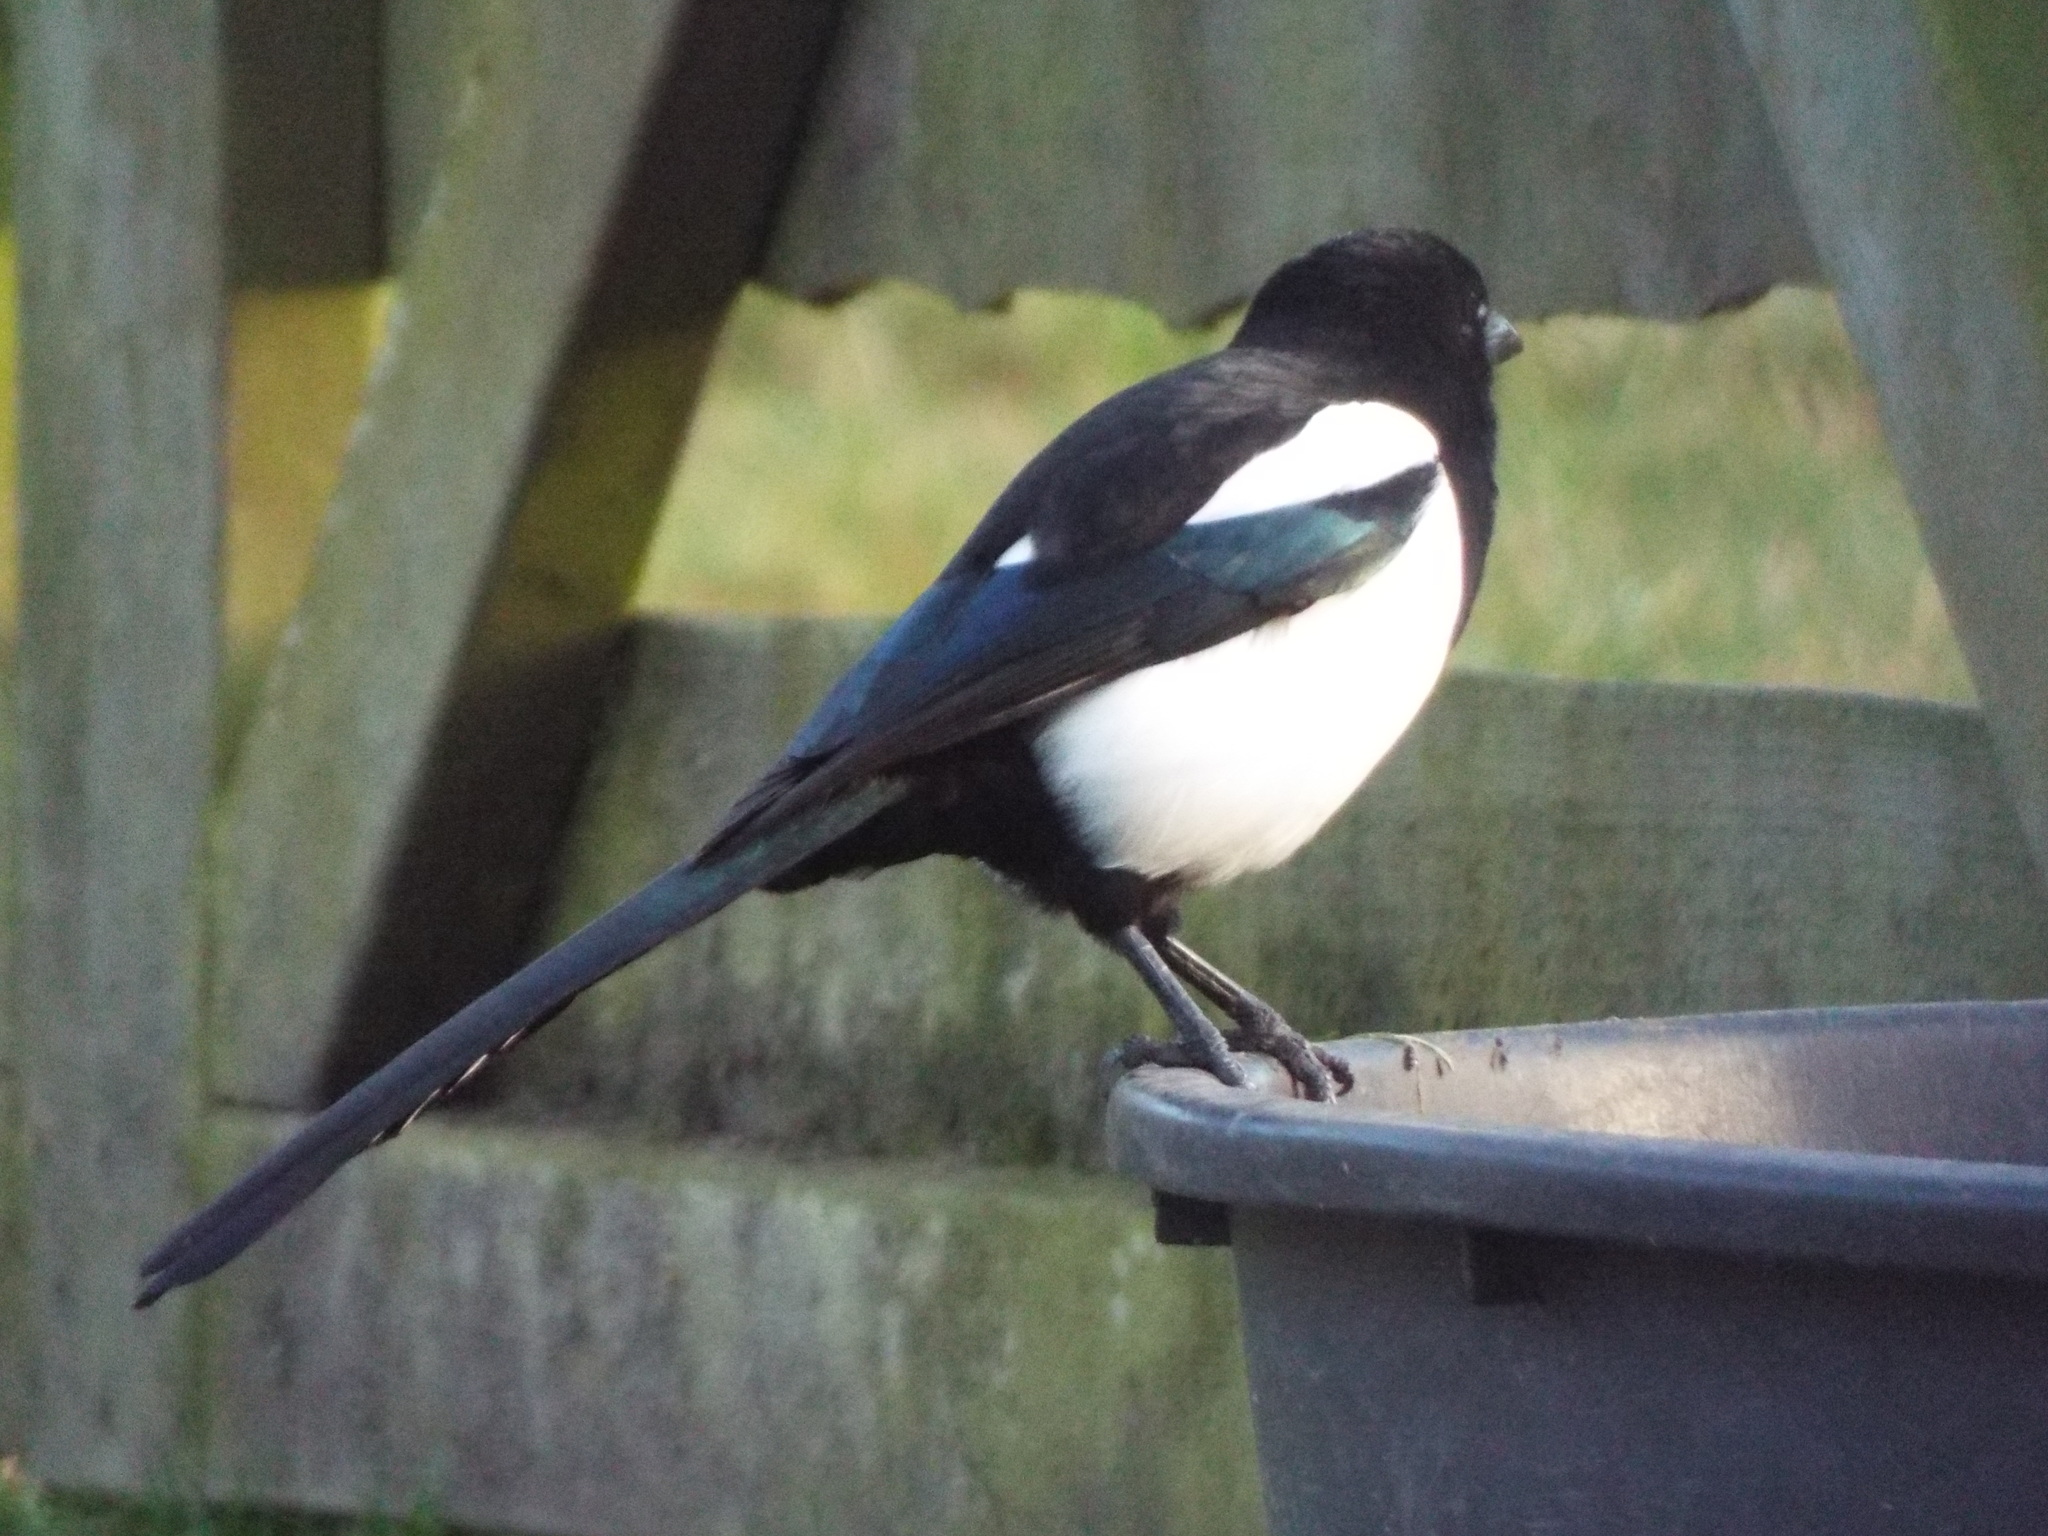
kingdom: Animalia
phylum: Chordata
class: Aves
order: Passeriformes
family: Corvidae
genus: Pica
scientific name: Pica pica
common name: Eurasian magpie
